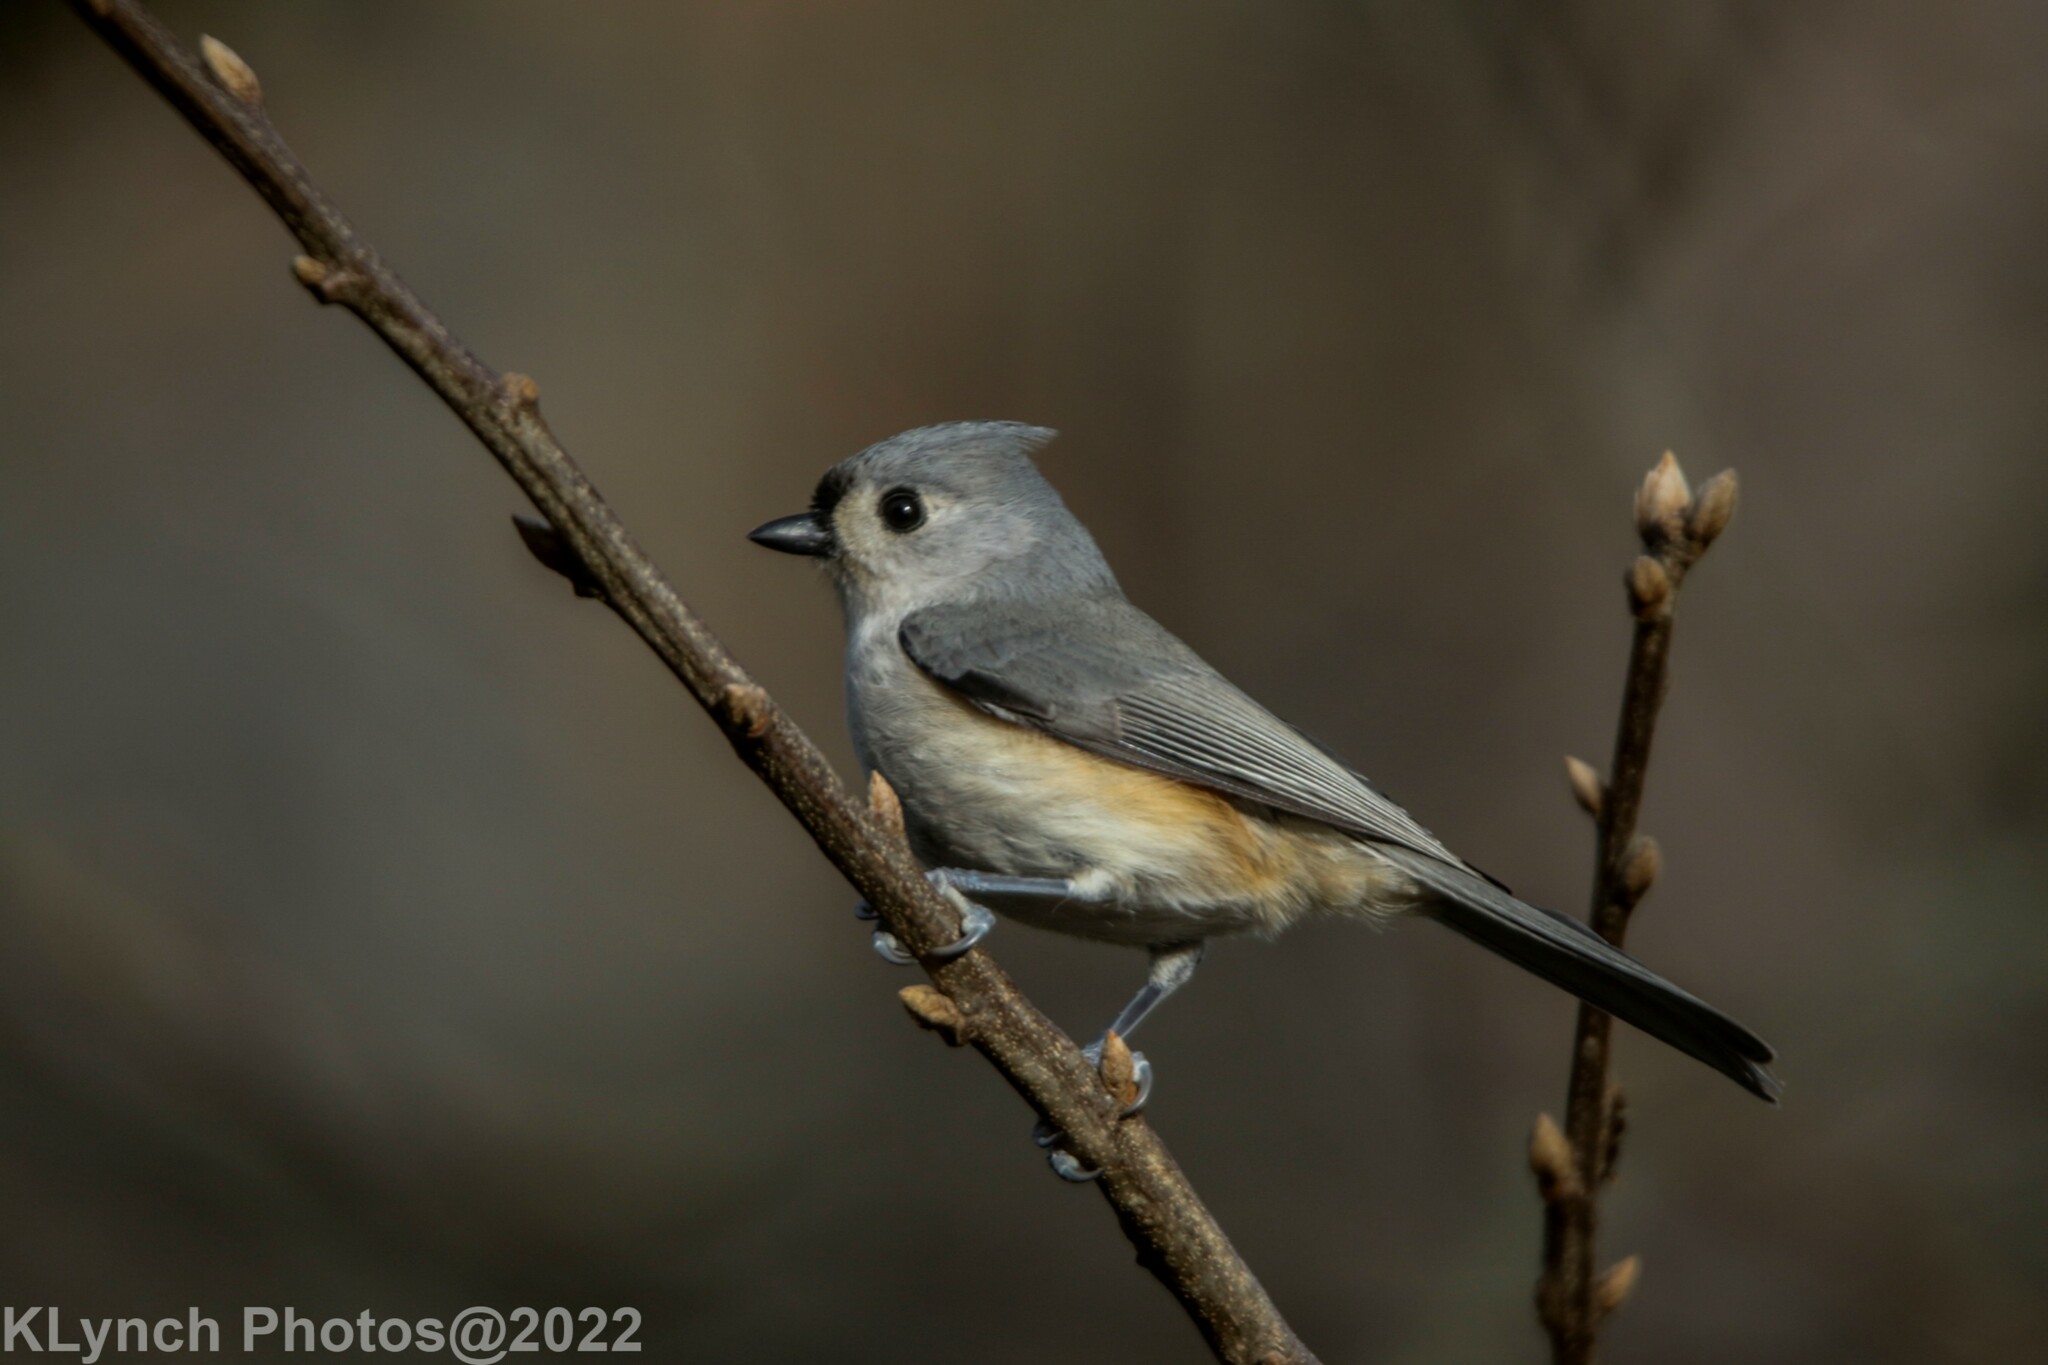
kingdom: Animalia
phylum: Chordata
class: Aves
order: Passeriformes
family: Paridae
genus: Baeolophus
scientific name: Baeolophus bicolor
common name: Tufted titmouse
